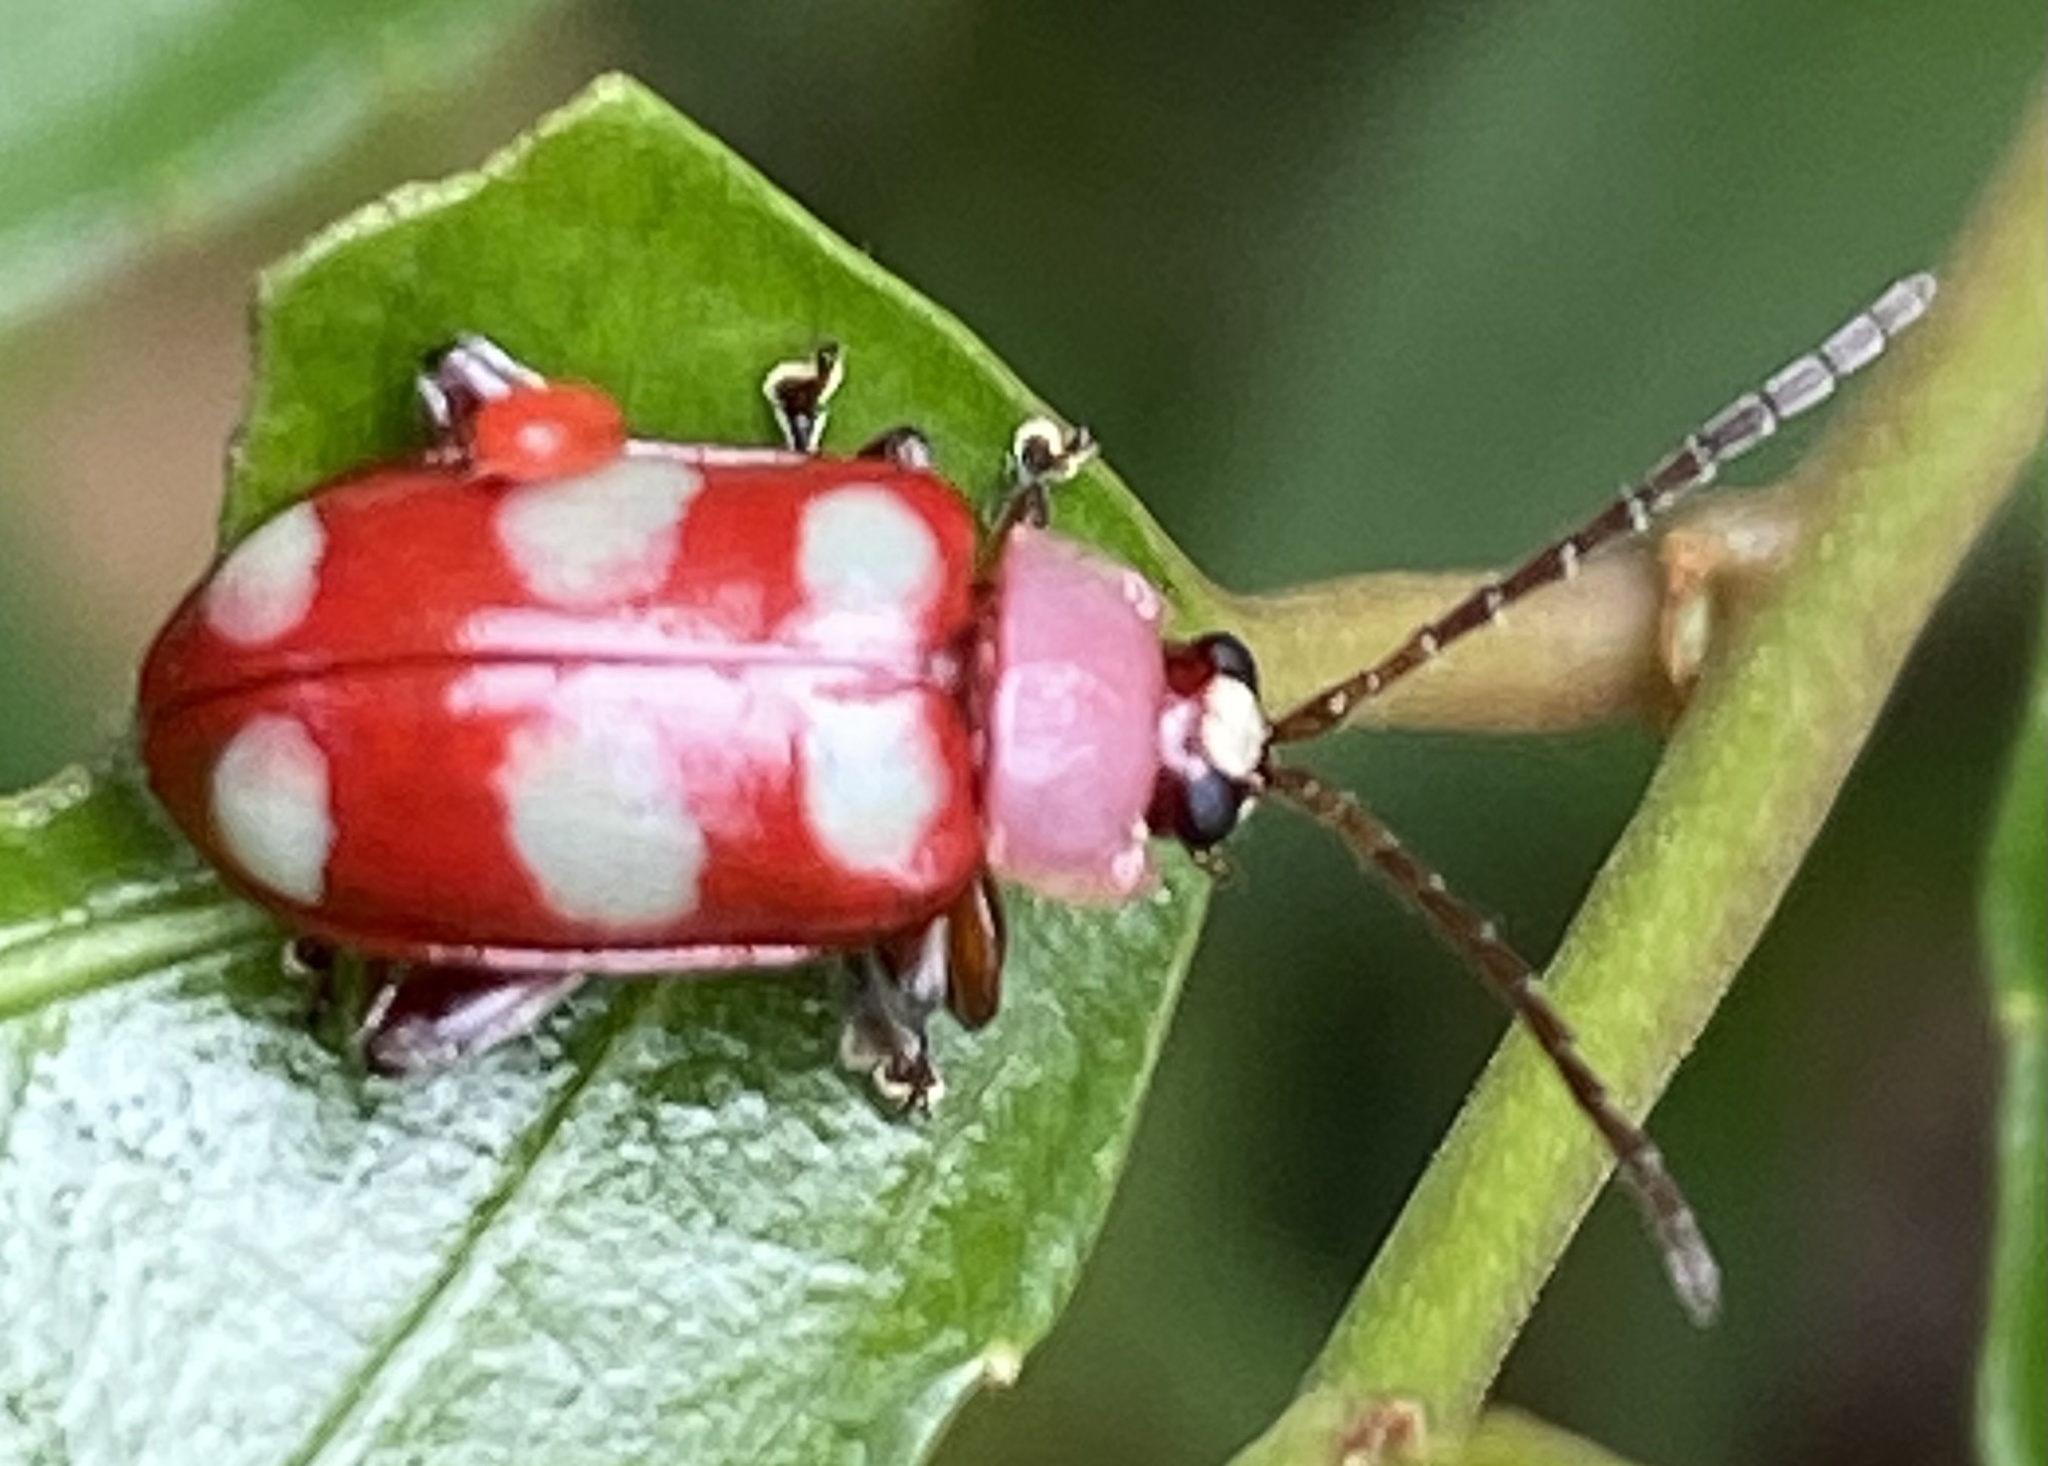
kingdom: Animalia
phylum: Arthropoda
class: Insecta
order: Coleoptera
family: Chrysomelidae
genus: Omophoita
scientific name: Omophoita sexnotata
